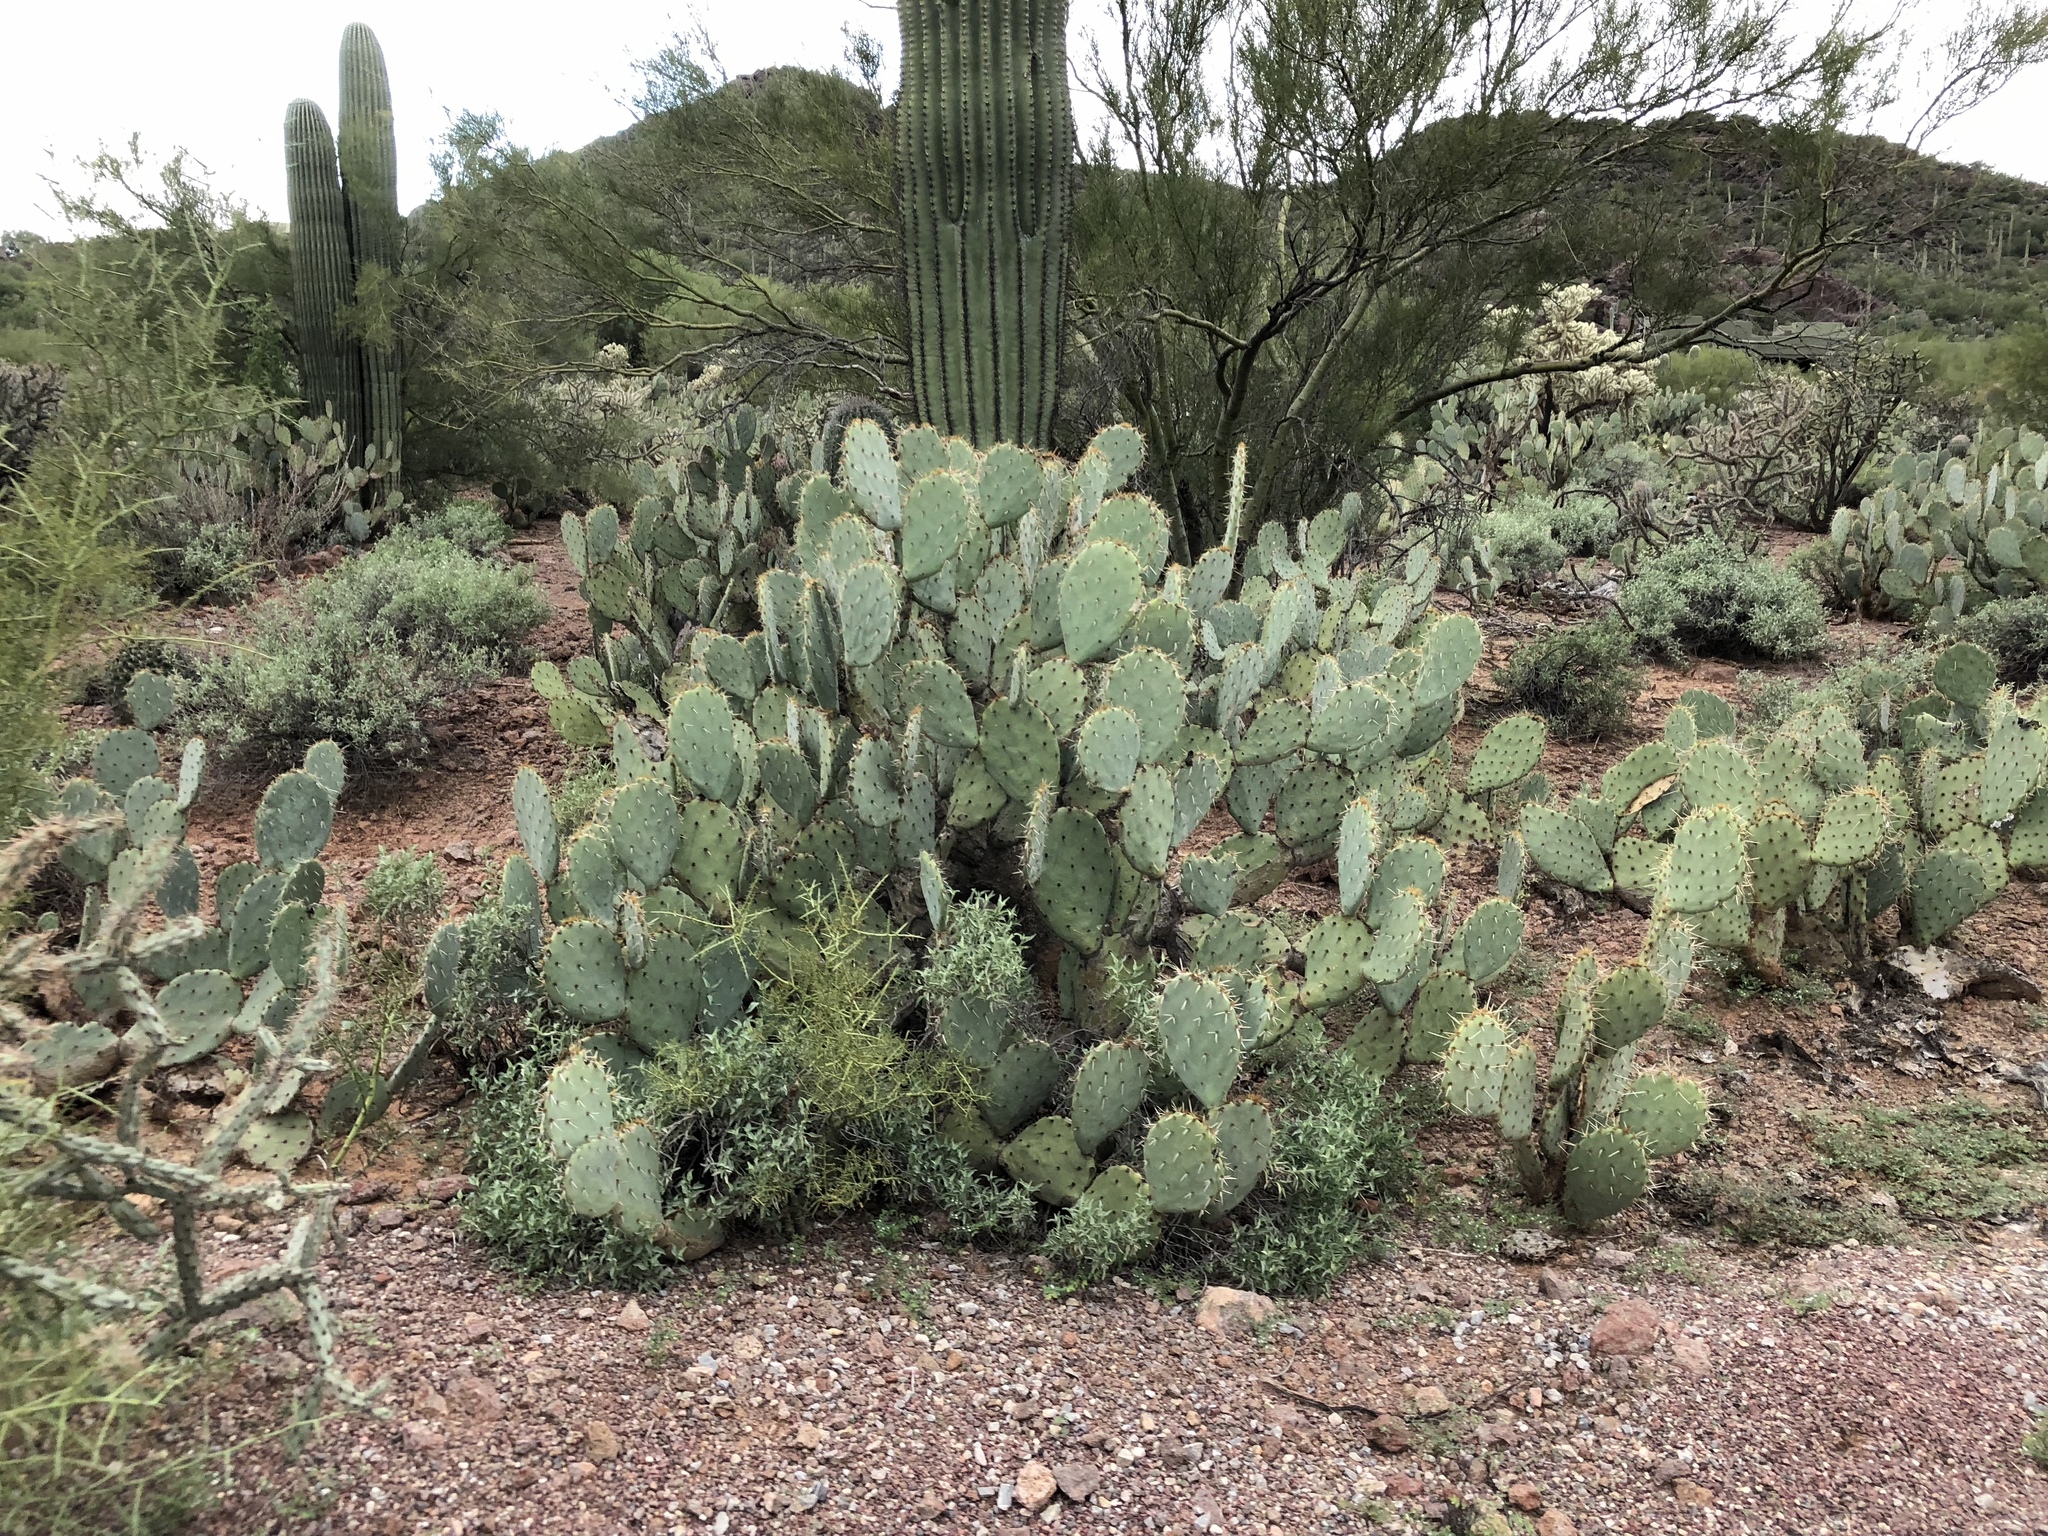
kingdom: Plantae
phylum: Tracheophyta
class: Magnoliopsida
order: Caryophyllales
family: Cactaceae
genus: Opuntia
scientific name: Opuntia engelmannii
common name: Cactus-apple
